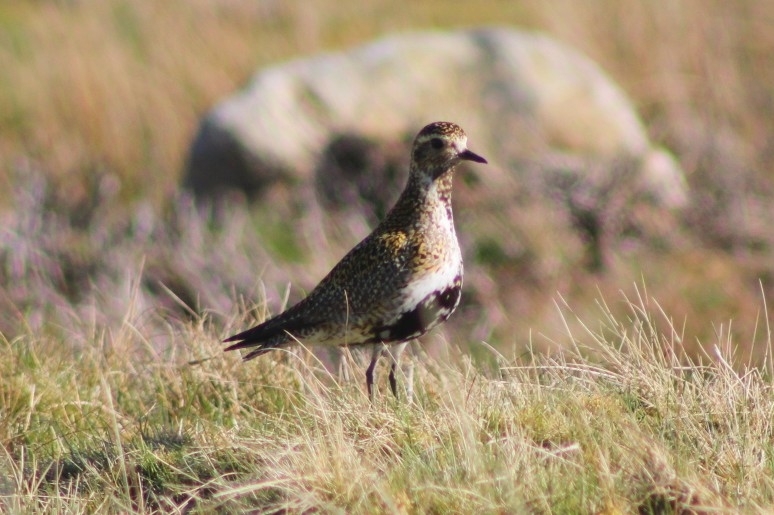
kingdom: Animalia
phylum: Chordata
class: Aves
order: Charadriiformes
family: Charadriidae
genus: Pluvialis
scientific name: Pluvialis apricaria
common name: European golden plover
